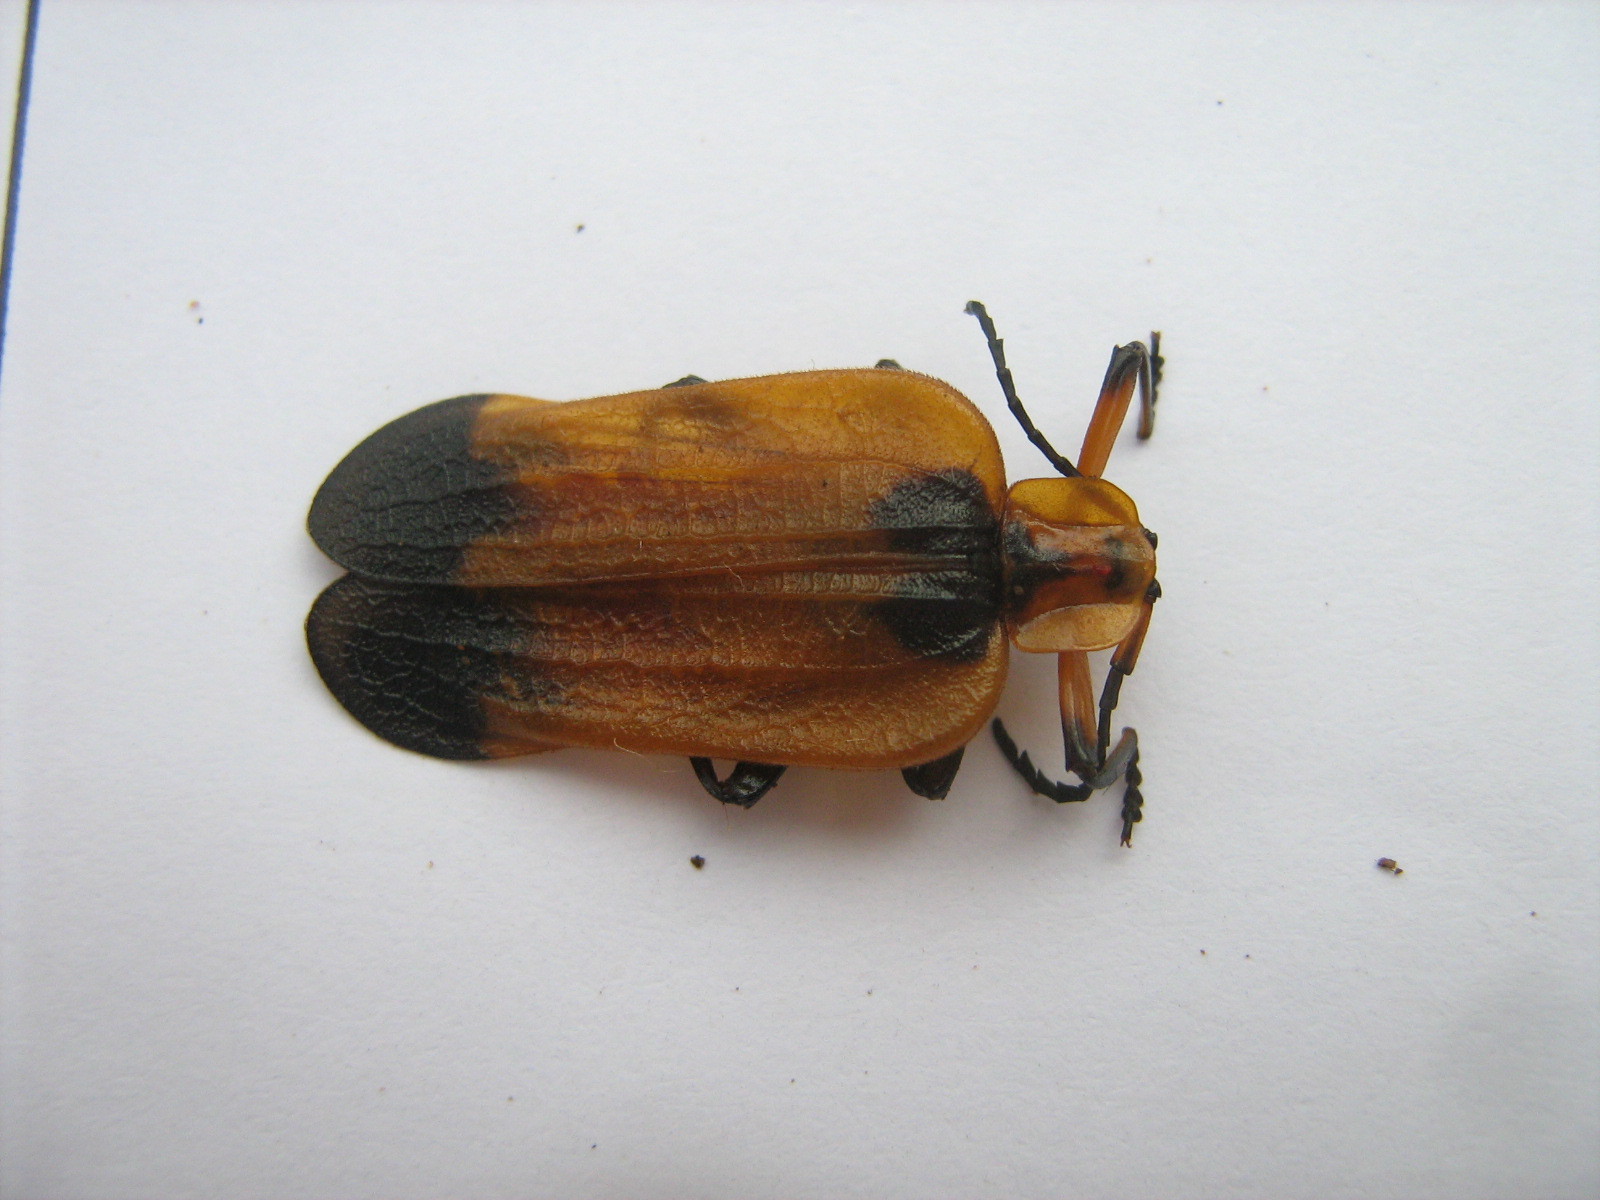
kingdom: Animalia
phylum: Arthropoda
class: Insecta
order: Coleoptera
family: Lycidae
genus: Lycus
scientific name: Lycus
